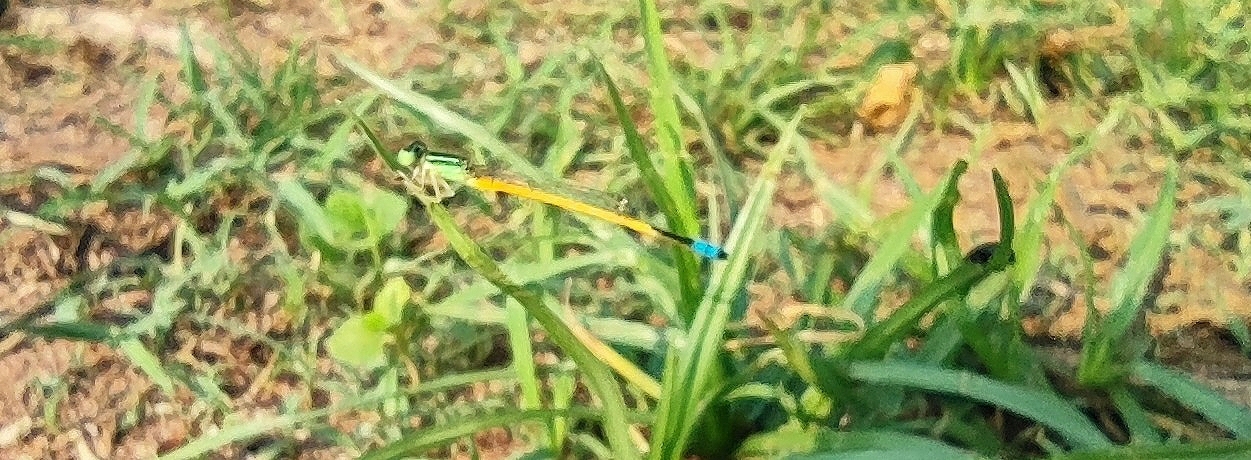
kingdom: Animalia
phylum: Arthropoda
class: Insecta
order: Odonata
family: Coenagrionidae
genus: Ischnura
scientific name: Ischnura rubilio
